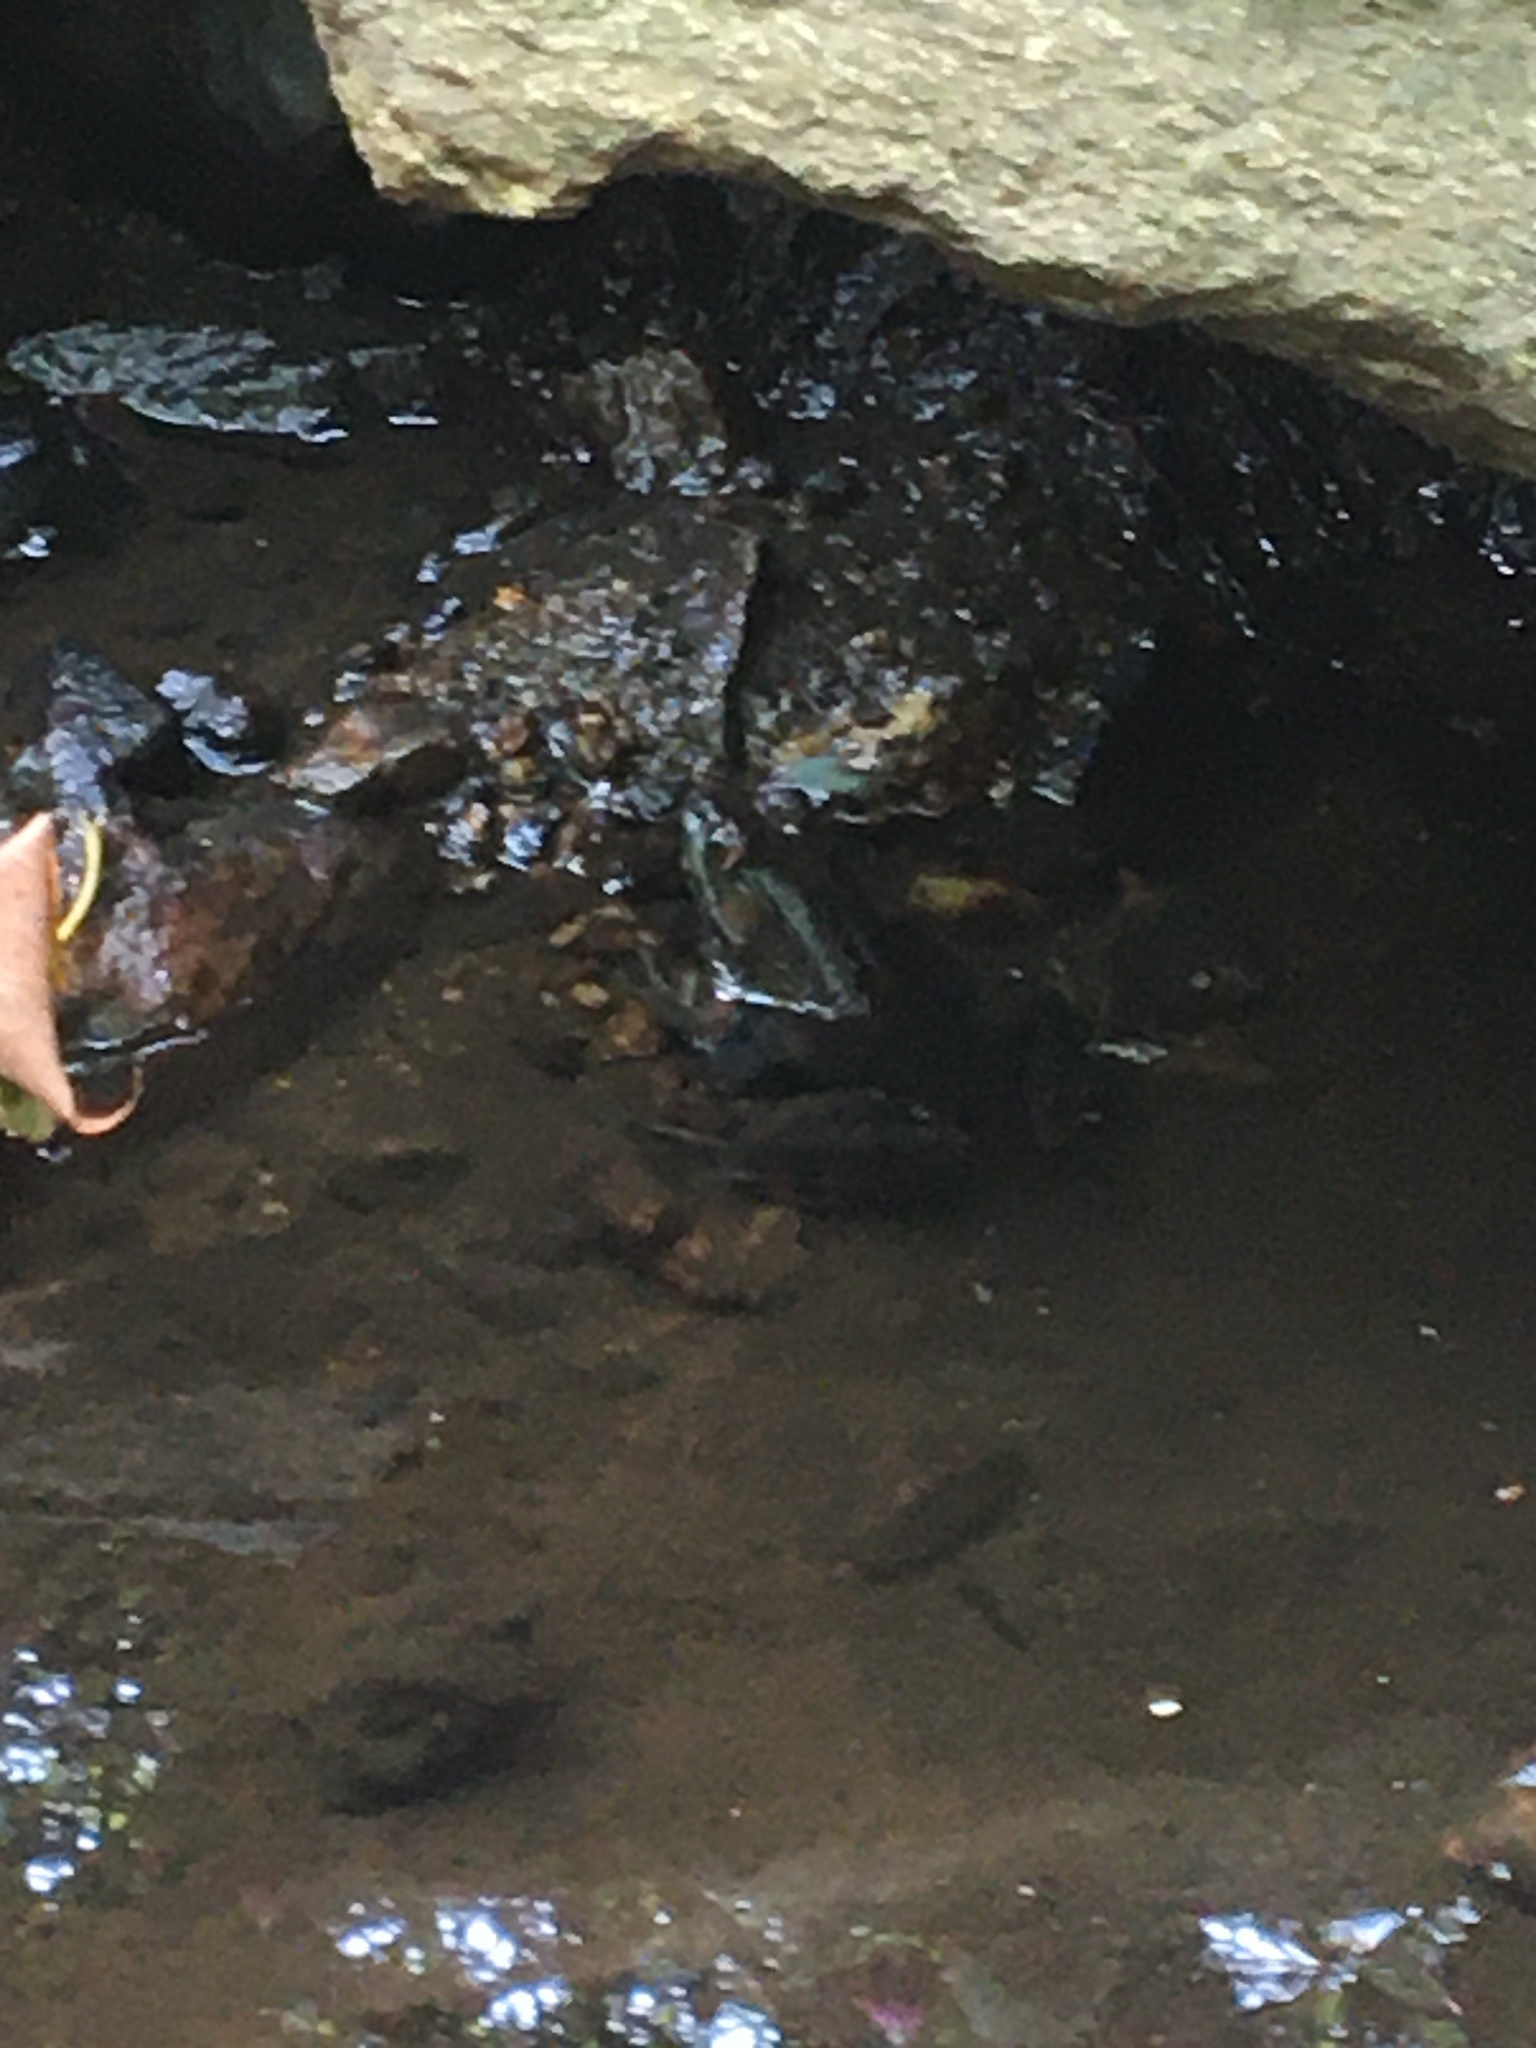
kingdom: Animalia
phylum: Chordata
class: Amphibia
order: Anura
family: Ranidae
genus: Lithobates
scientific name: Lithobates clamitans
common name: Green frog
